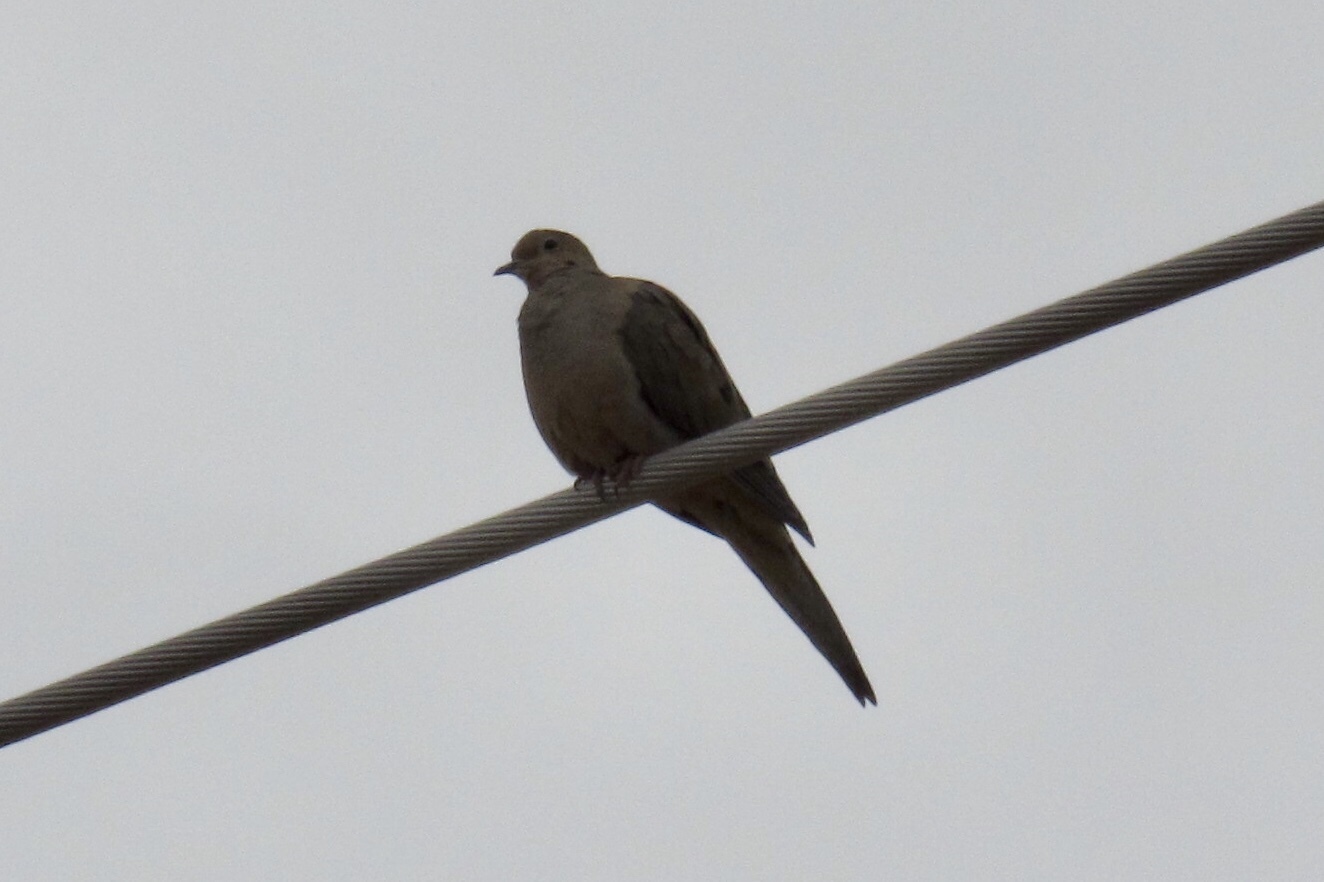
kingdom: Animalia
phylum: Chordata
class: Aves
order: Columbiformes
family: Columbidae
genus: Zenaida
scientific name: Zenaida macroura
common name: Mourning dove
